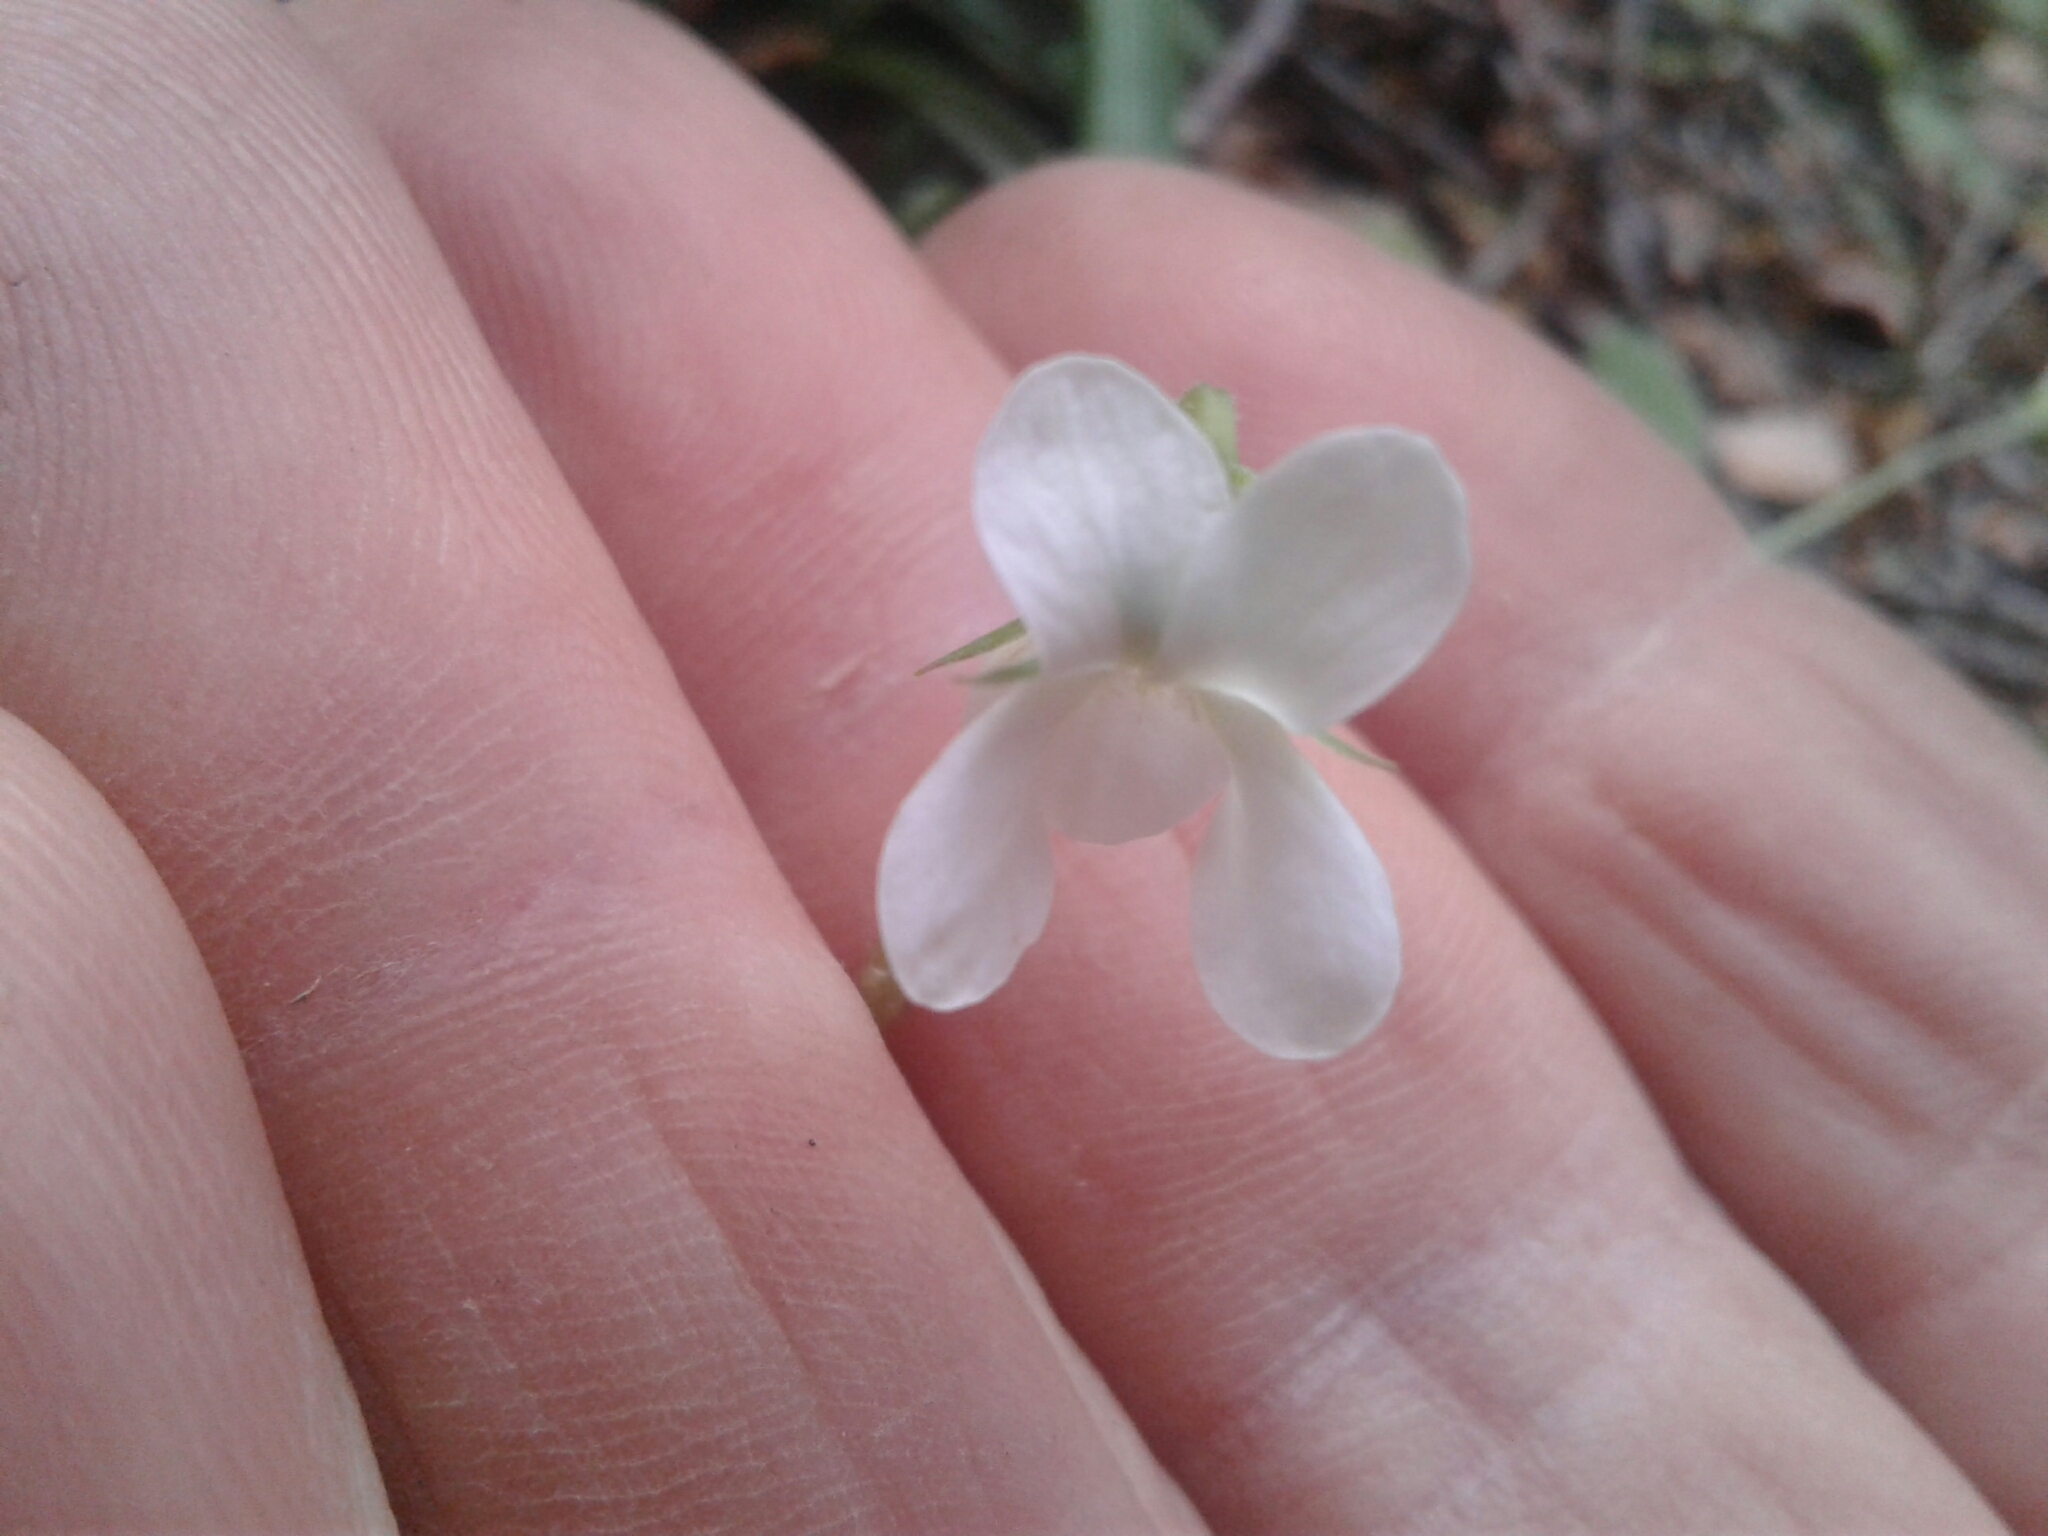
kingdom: Plantae
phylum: Tracheophyta
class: Magnoliopsida
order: Malpighiales
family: Violaceae
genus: Viola
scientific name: Viola filicaulis
